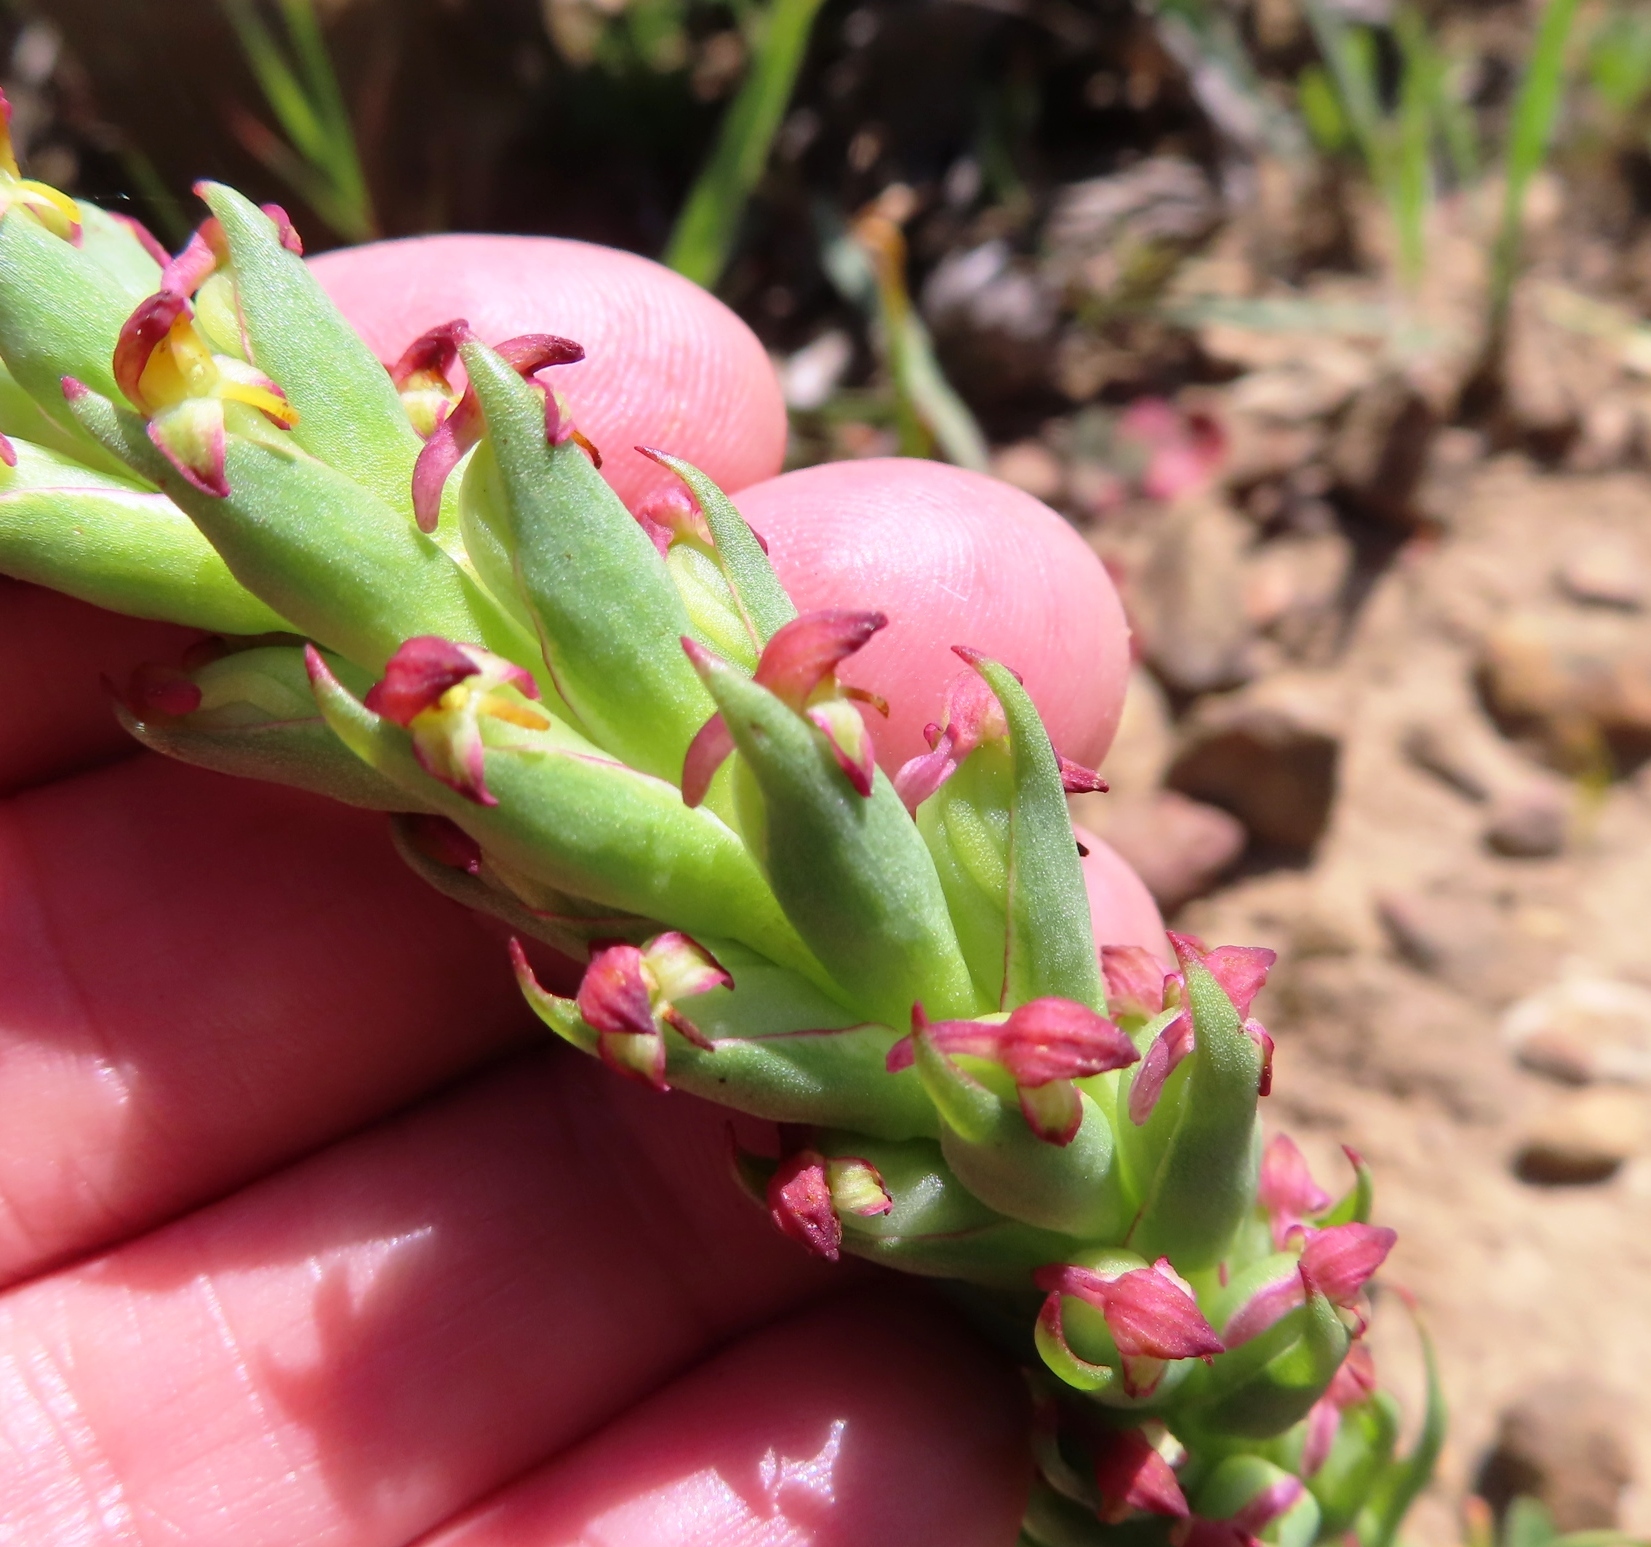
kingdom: Plantae
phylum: Tracheophyta
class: Liliopsida
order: Asparagales
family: Orchidaceae
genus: Disa
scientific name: Disa bracteata
